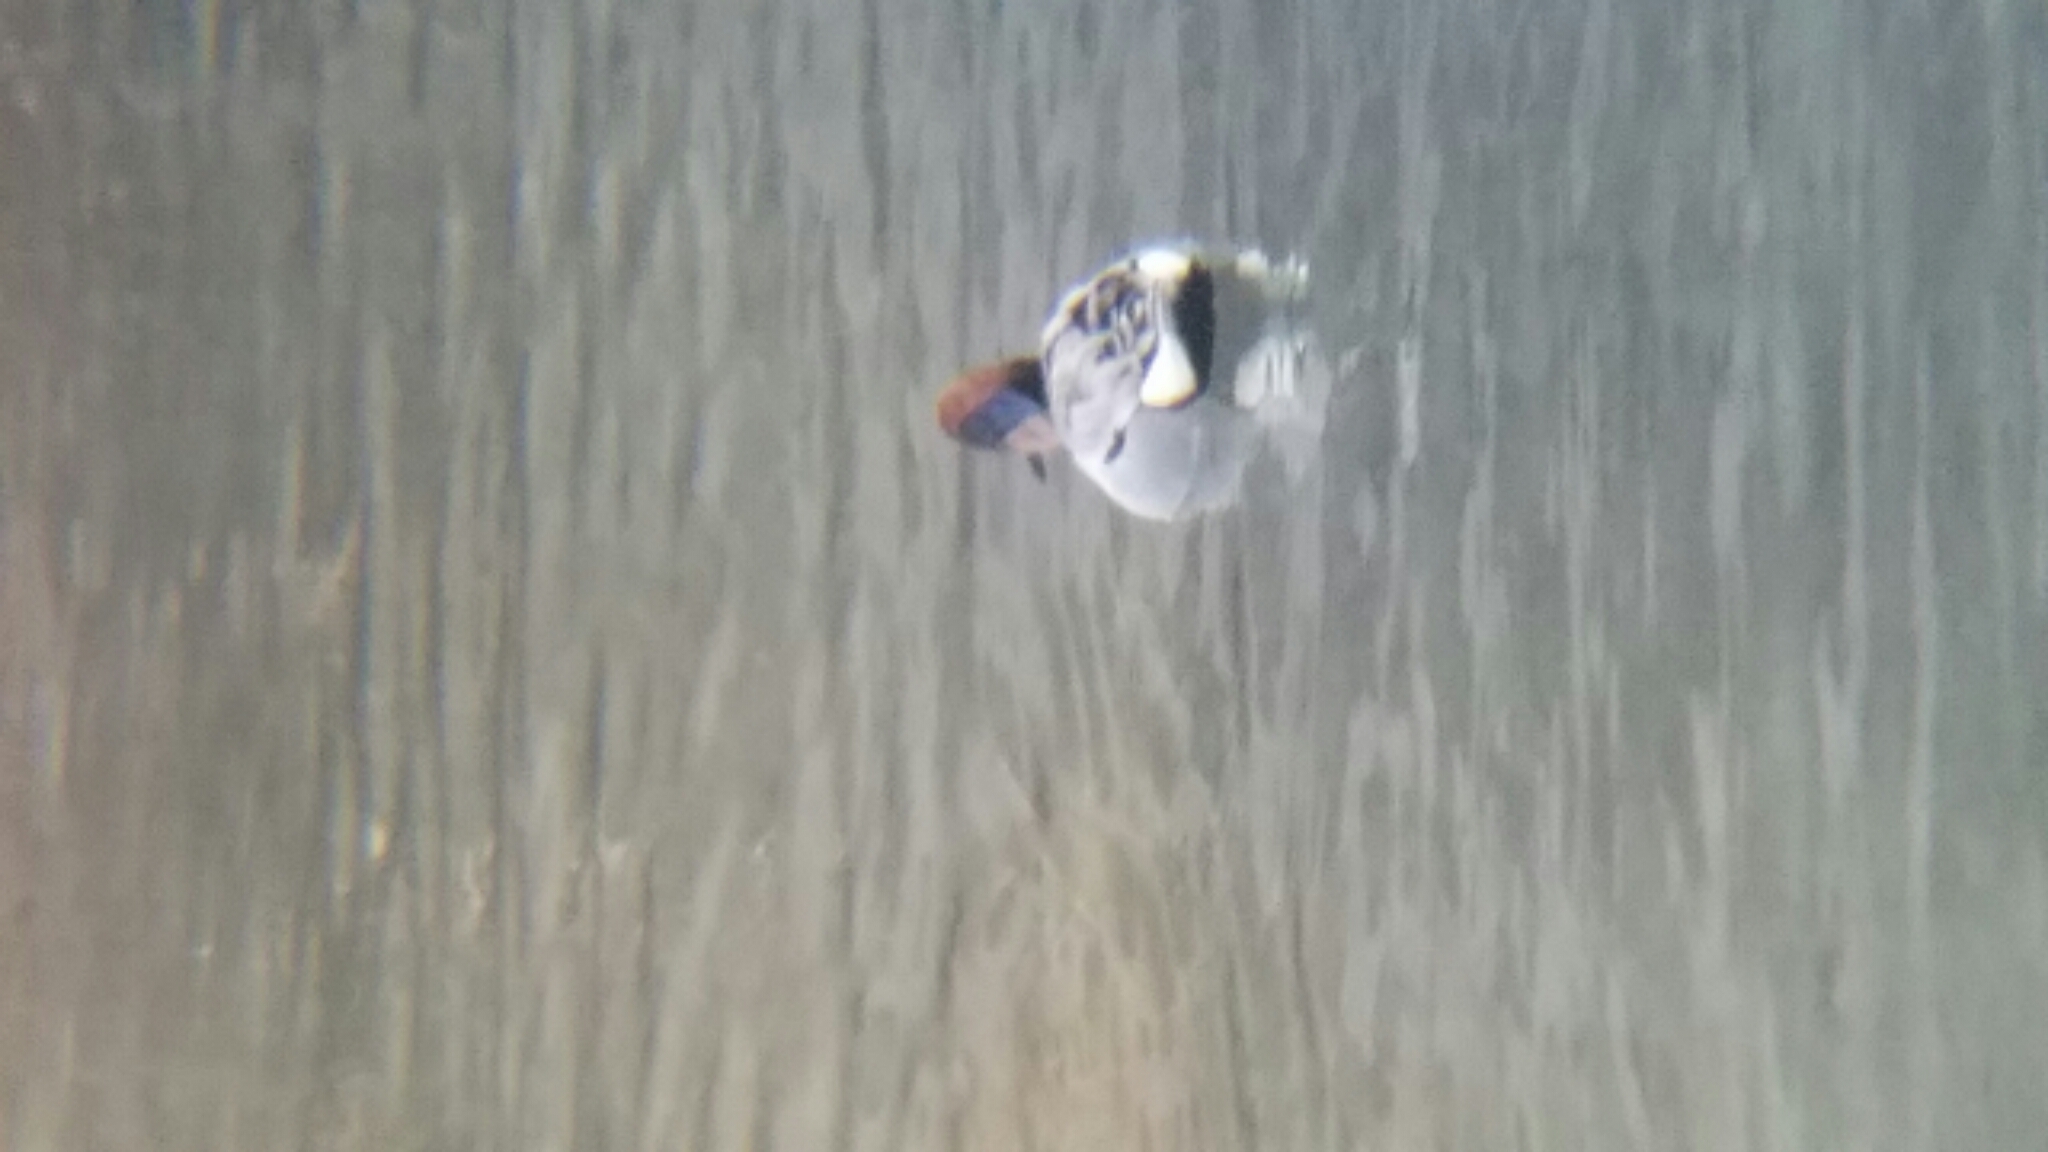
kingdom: Animalia
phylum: Chordata
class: Aves
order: Anseriformes
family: Anatidae
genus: Anas
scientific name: Anas crecca
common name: Eurasian teal
